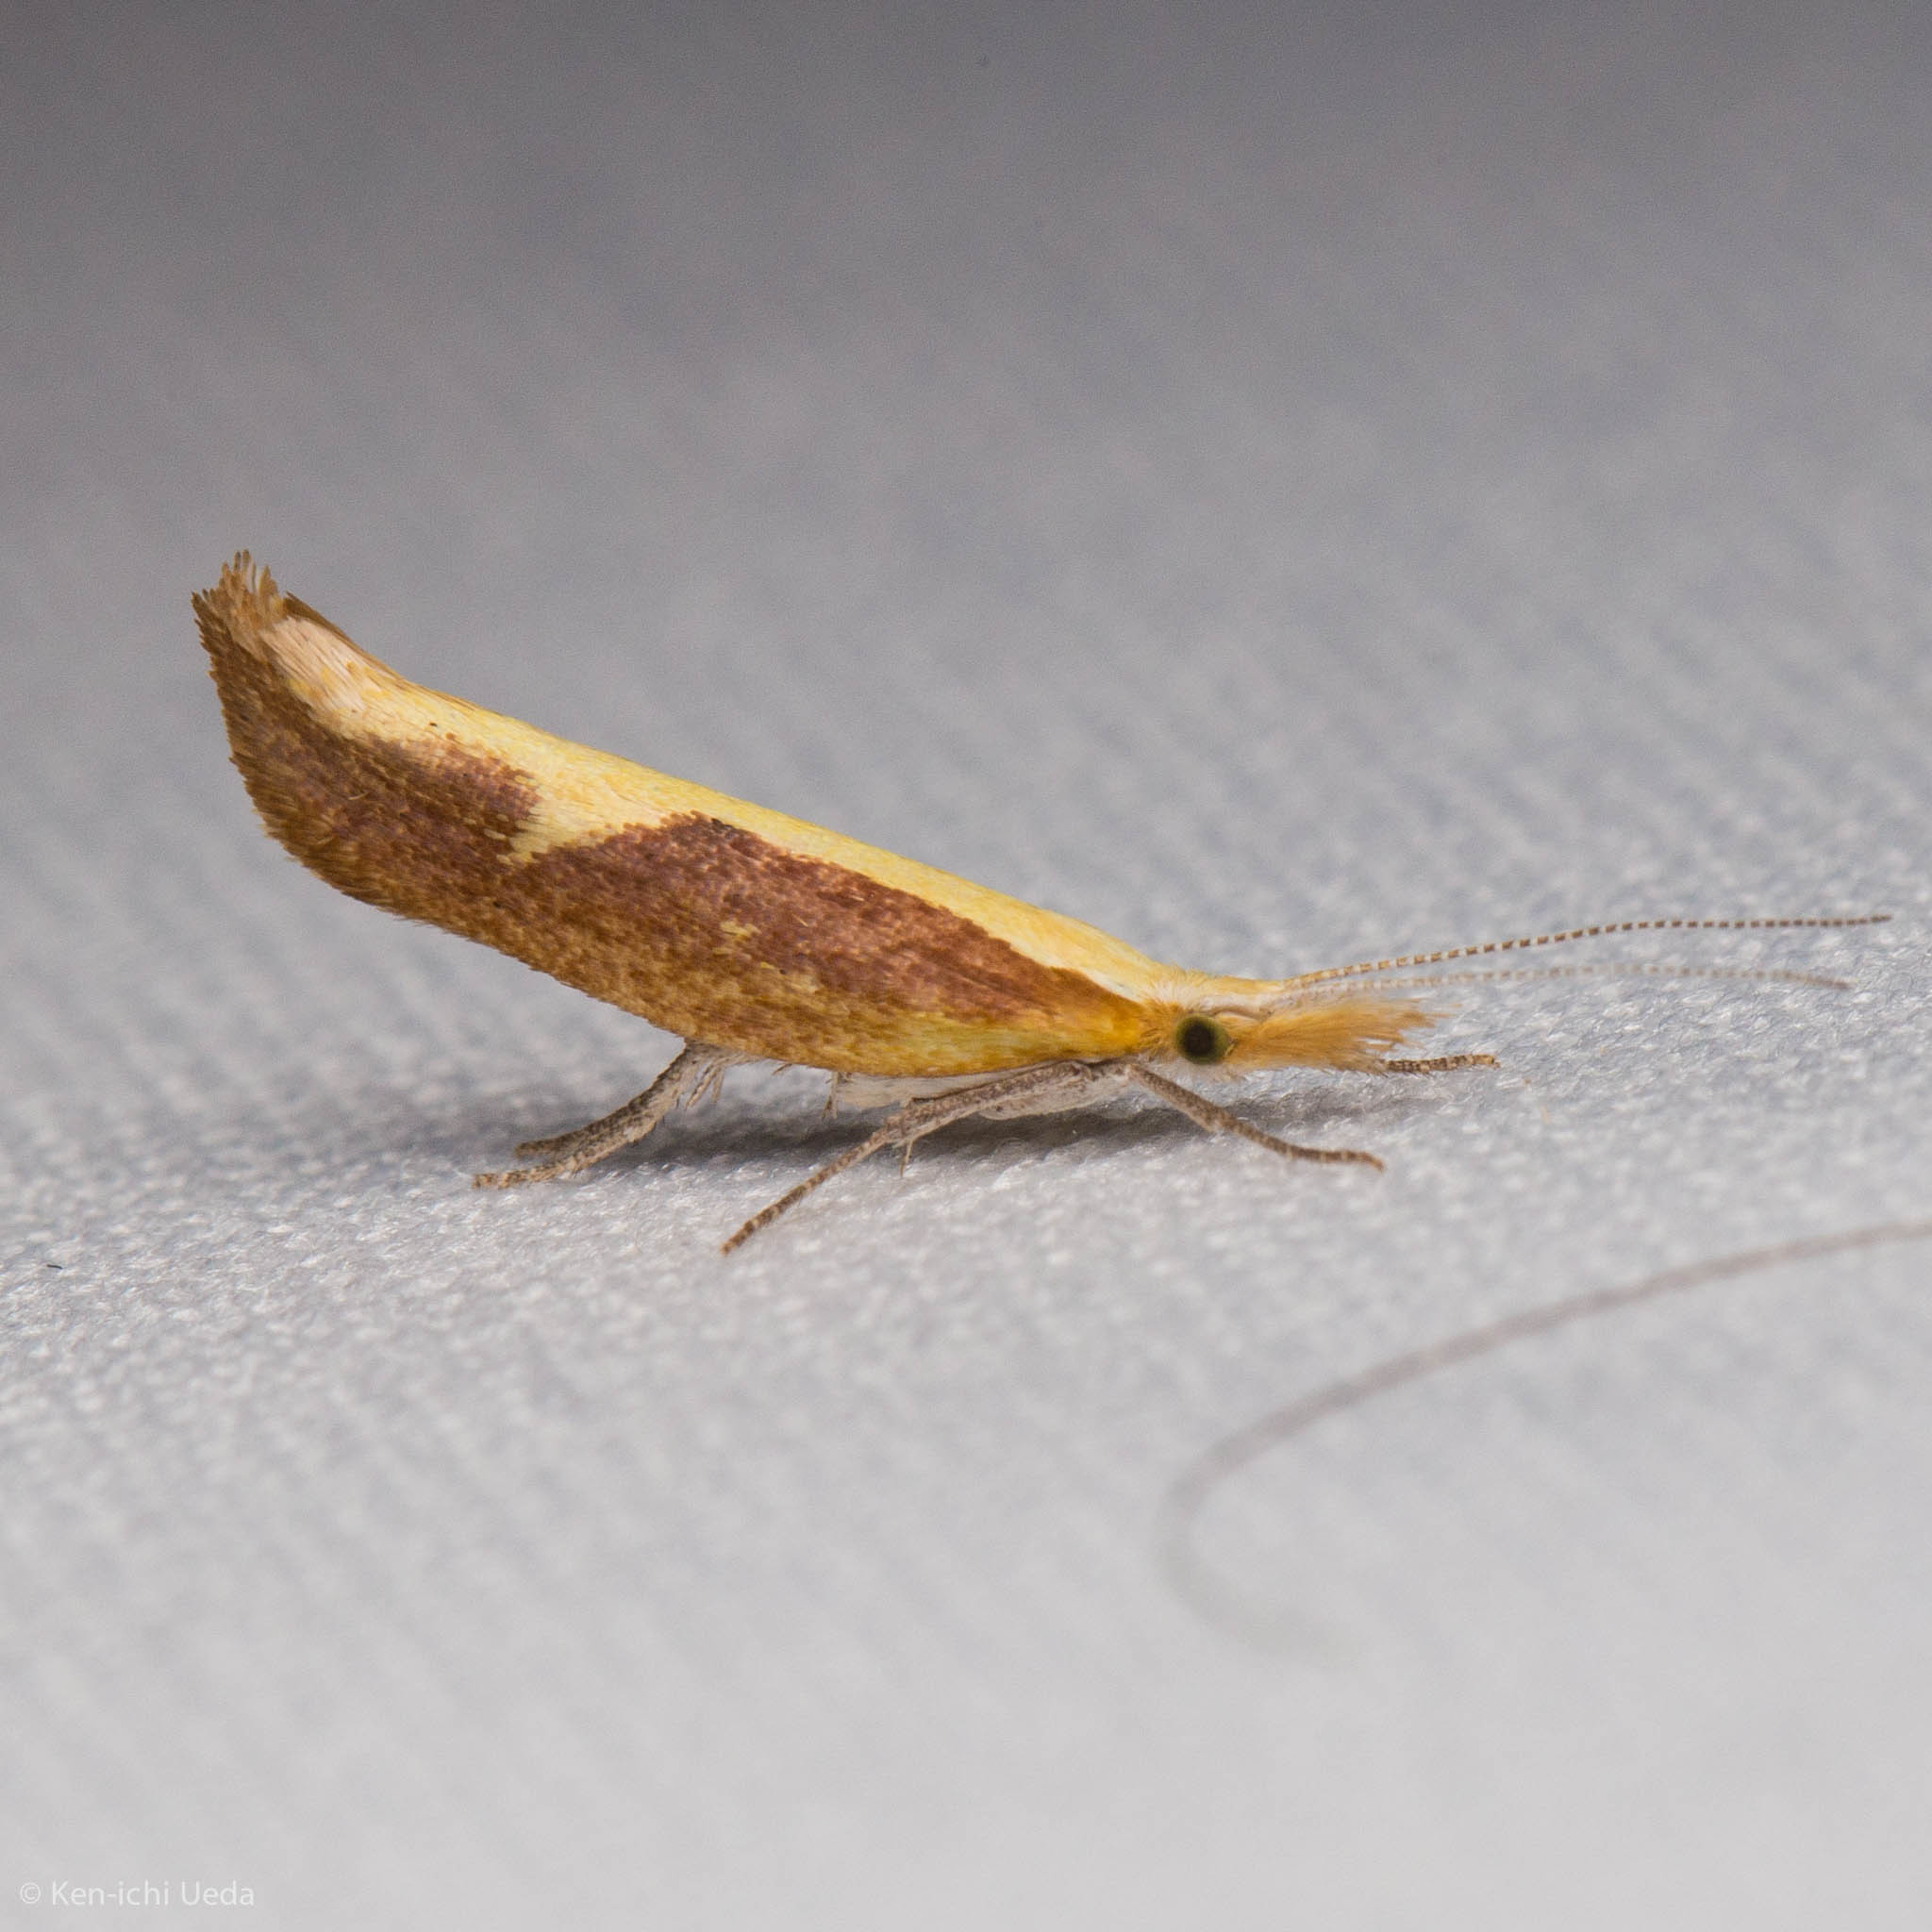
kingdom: Animalia
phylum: Arthropoda
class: Insecta
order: Lepidoptera
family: Ypsolophidae
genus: Ypsolopha
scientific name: Ypsolopha
